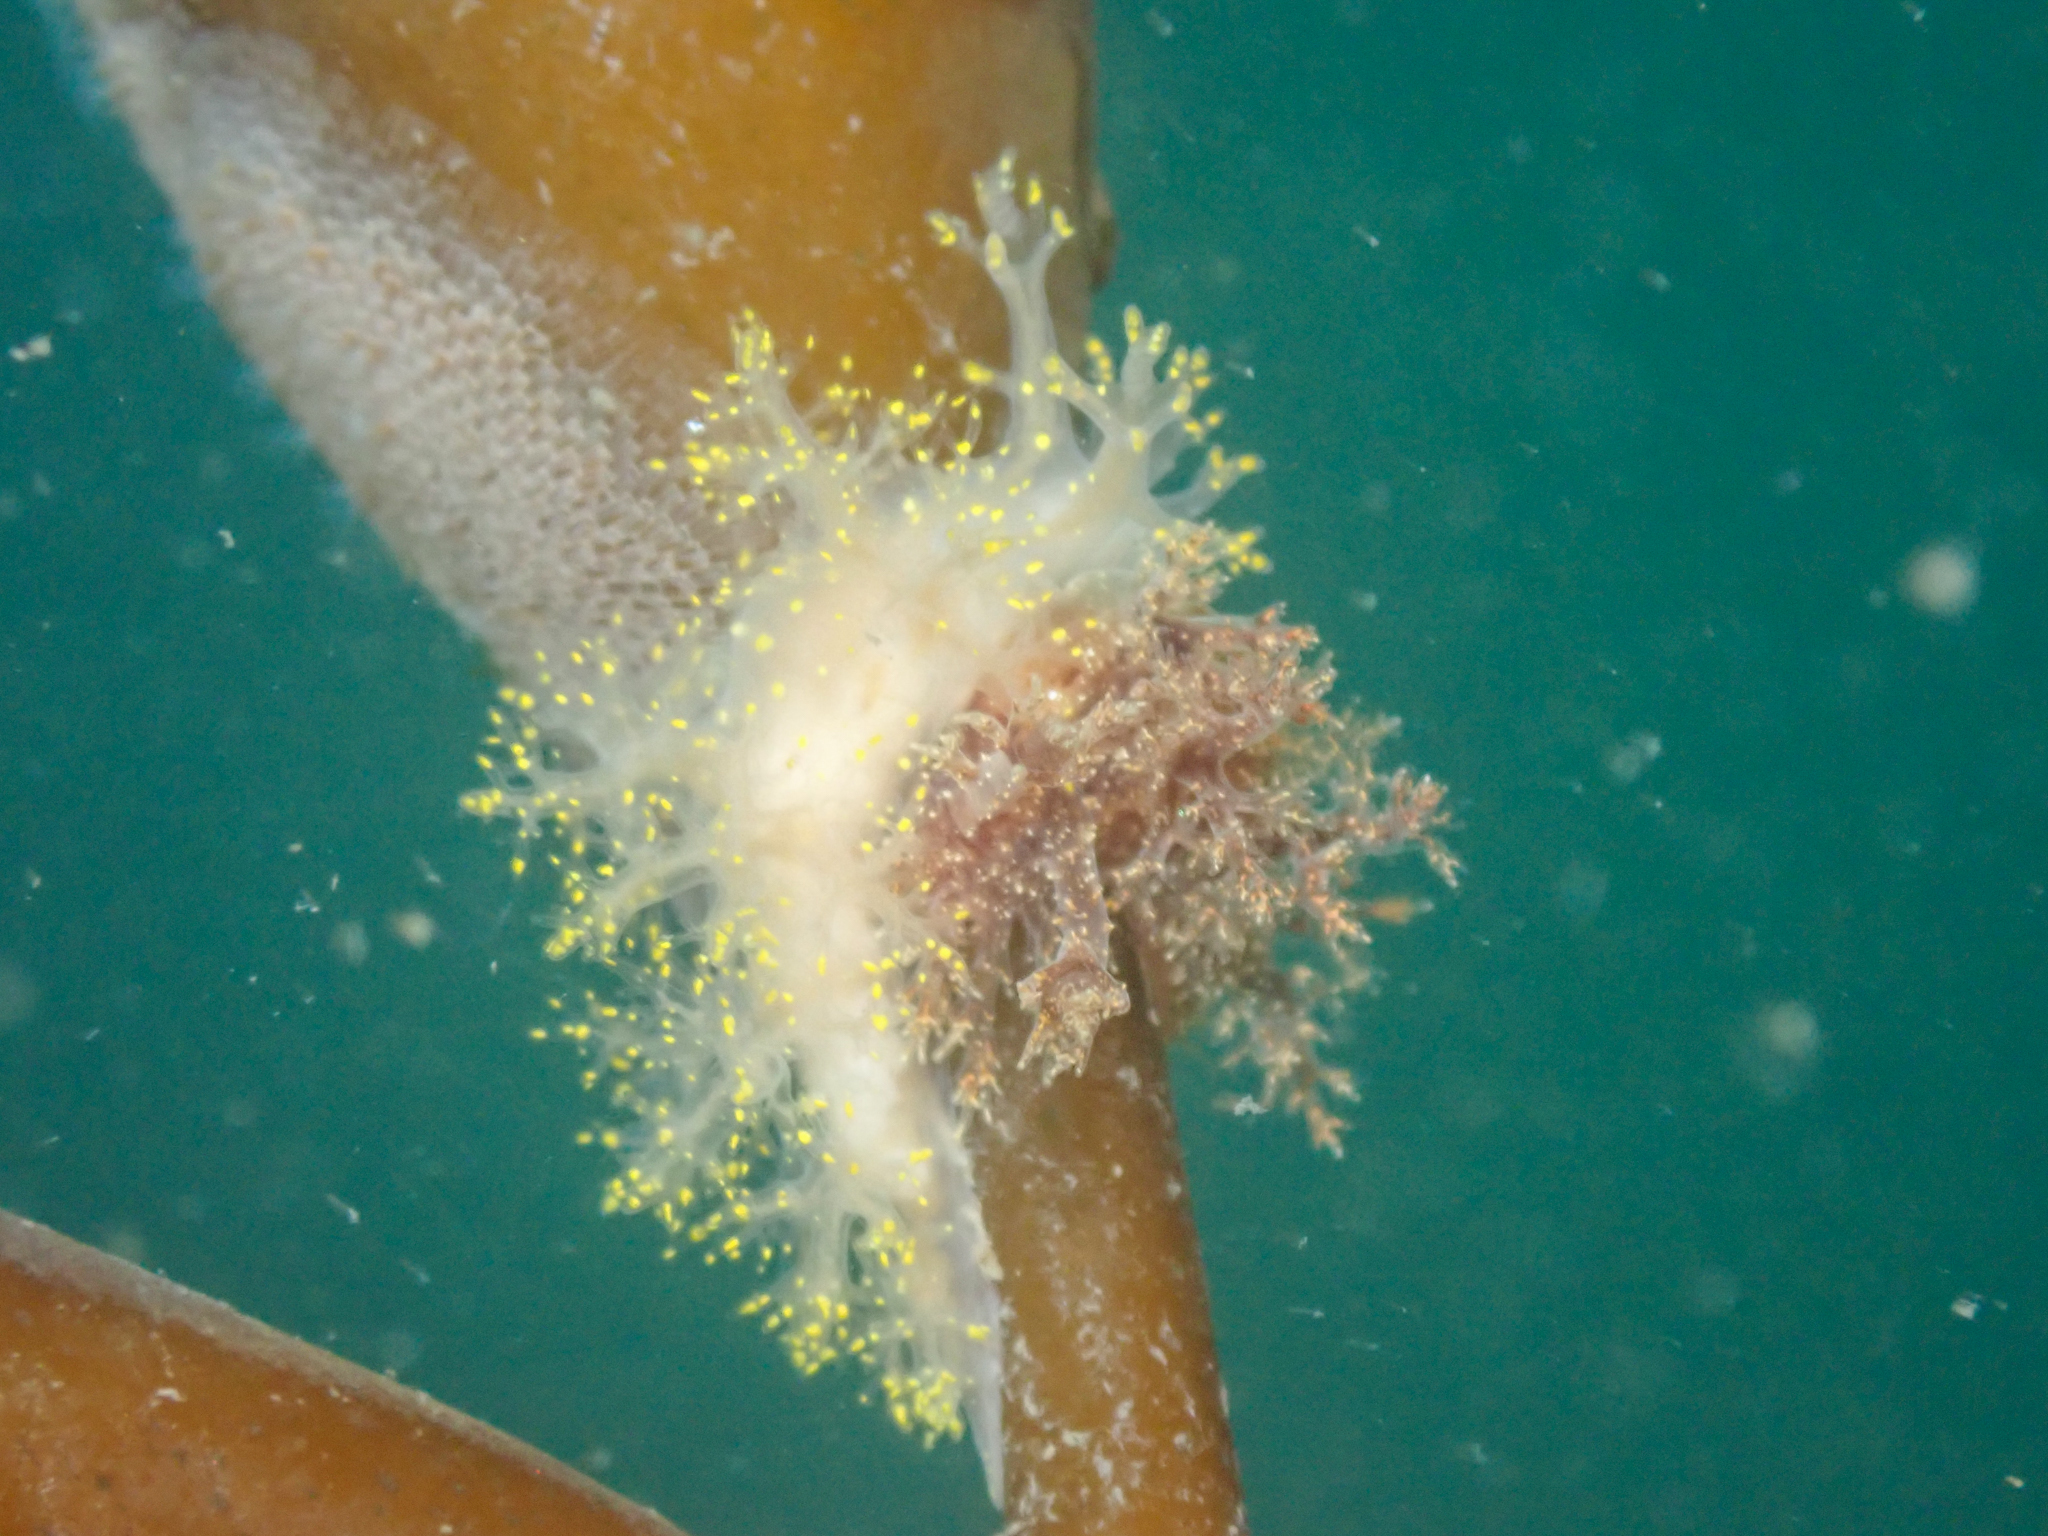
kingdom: Animalia
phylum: Mollusca
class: Gastropoda
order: Nudibranchia
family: Dendronotidae
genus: Dendronotus
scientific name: Dendronotus venustus
